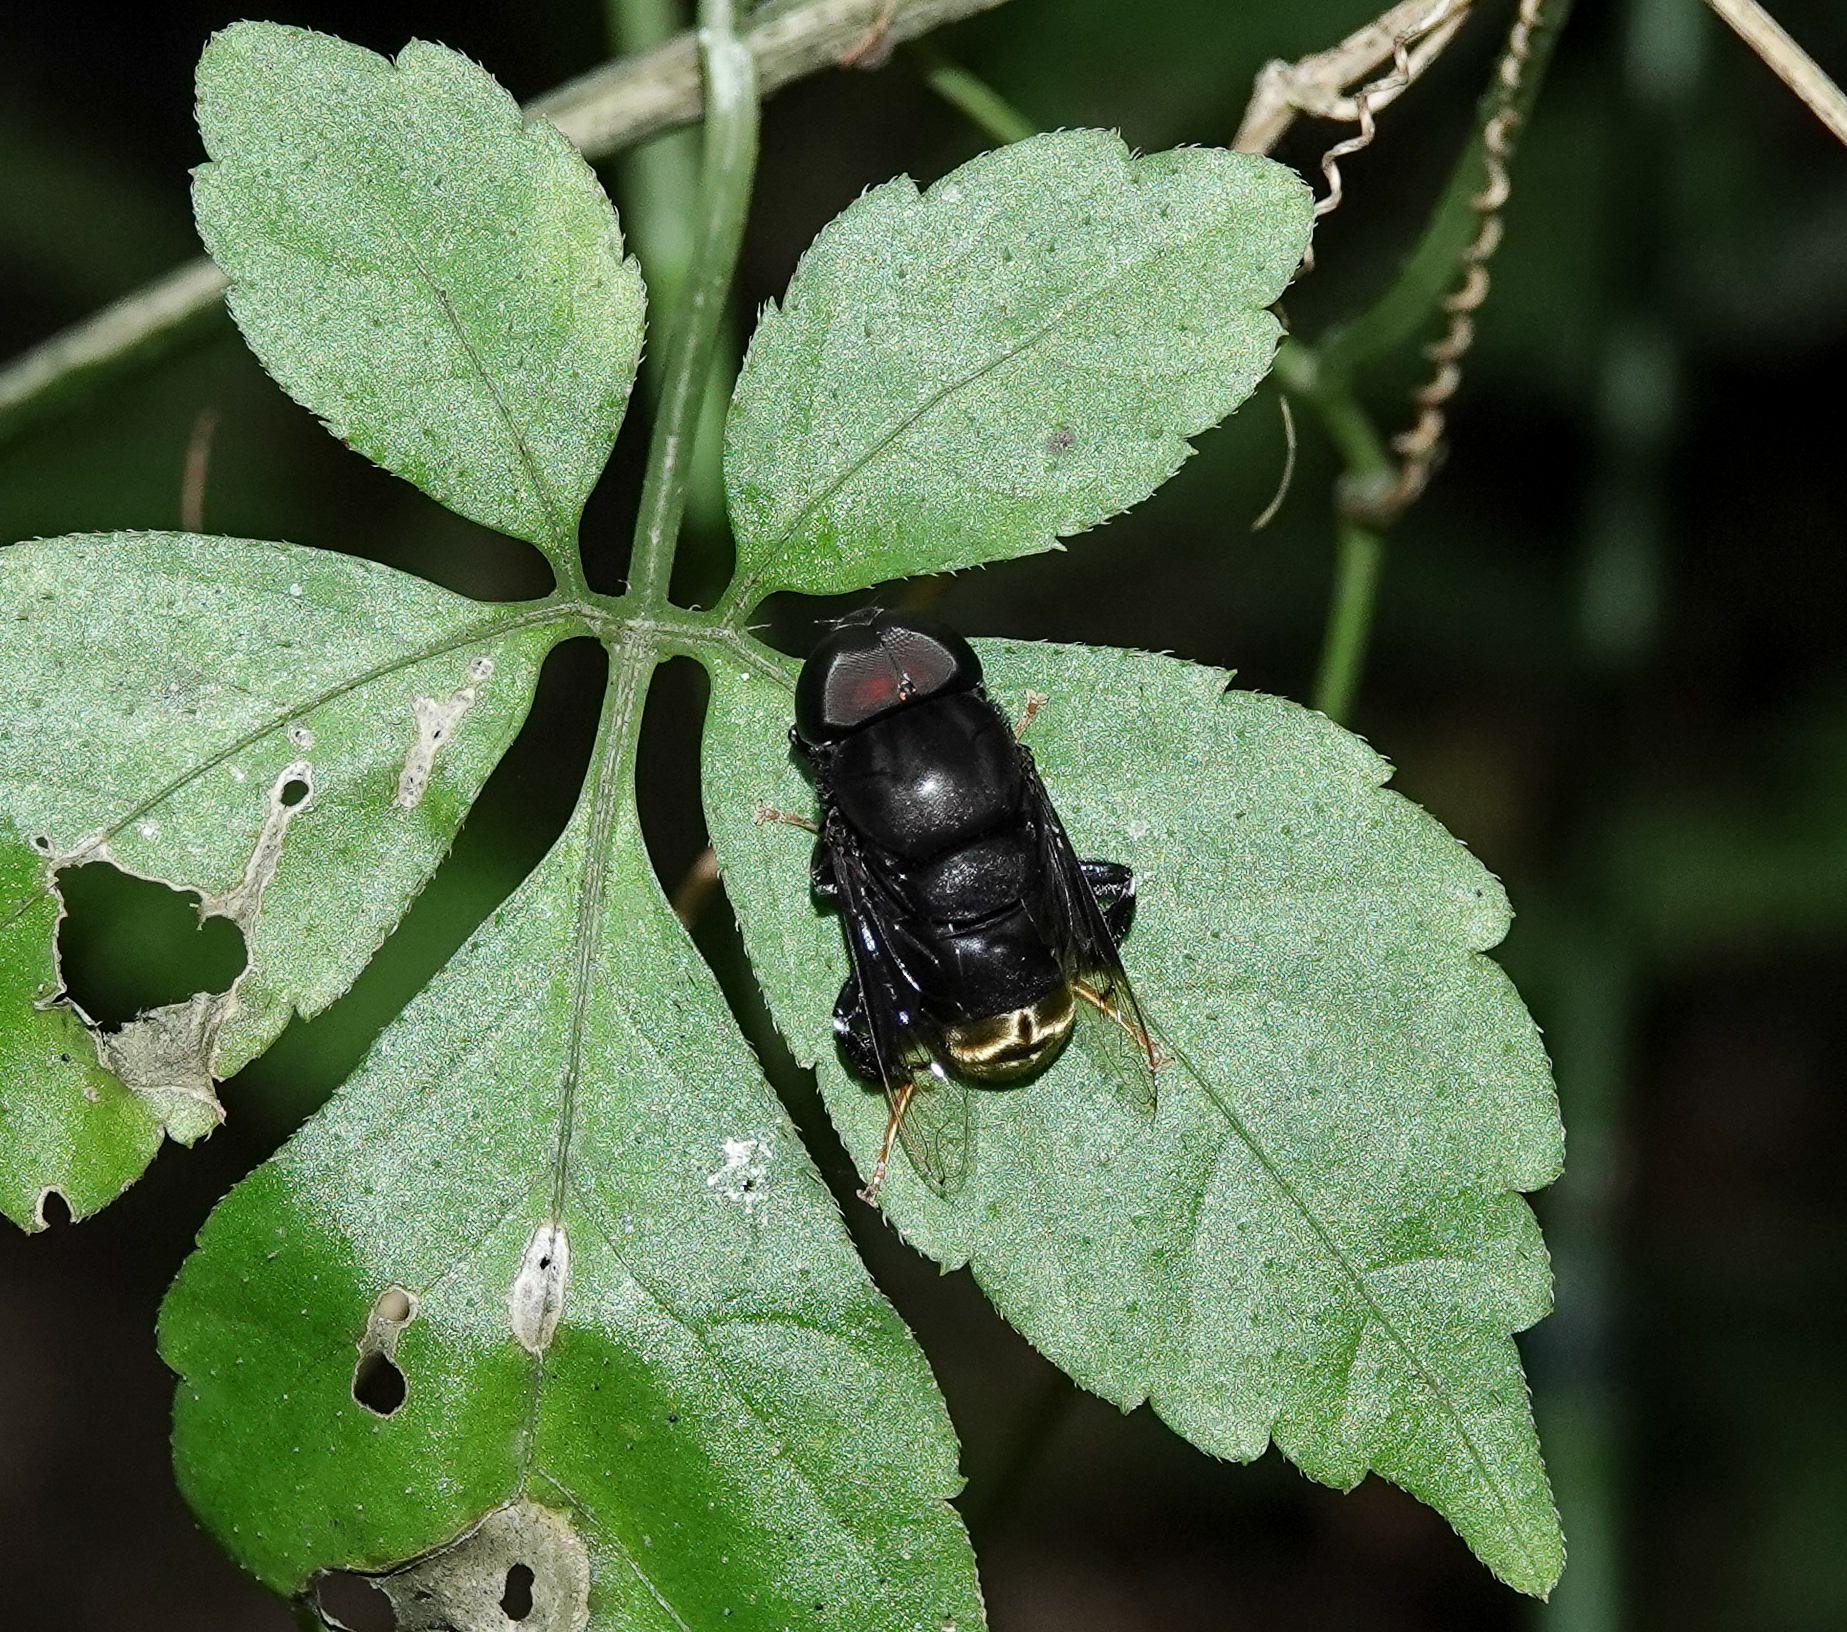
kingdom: Animalia
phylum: Arthropoda
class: Insecta
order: Diptera
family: Syrphidae
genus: Phytomia
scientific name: Phytomia chrysopyga
